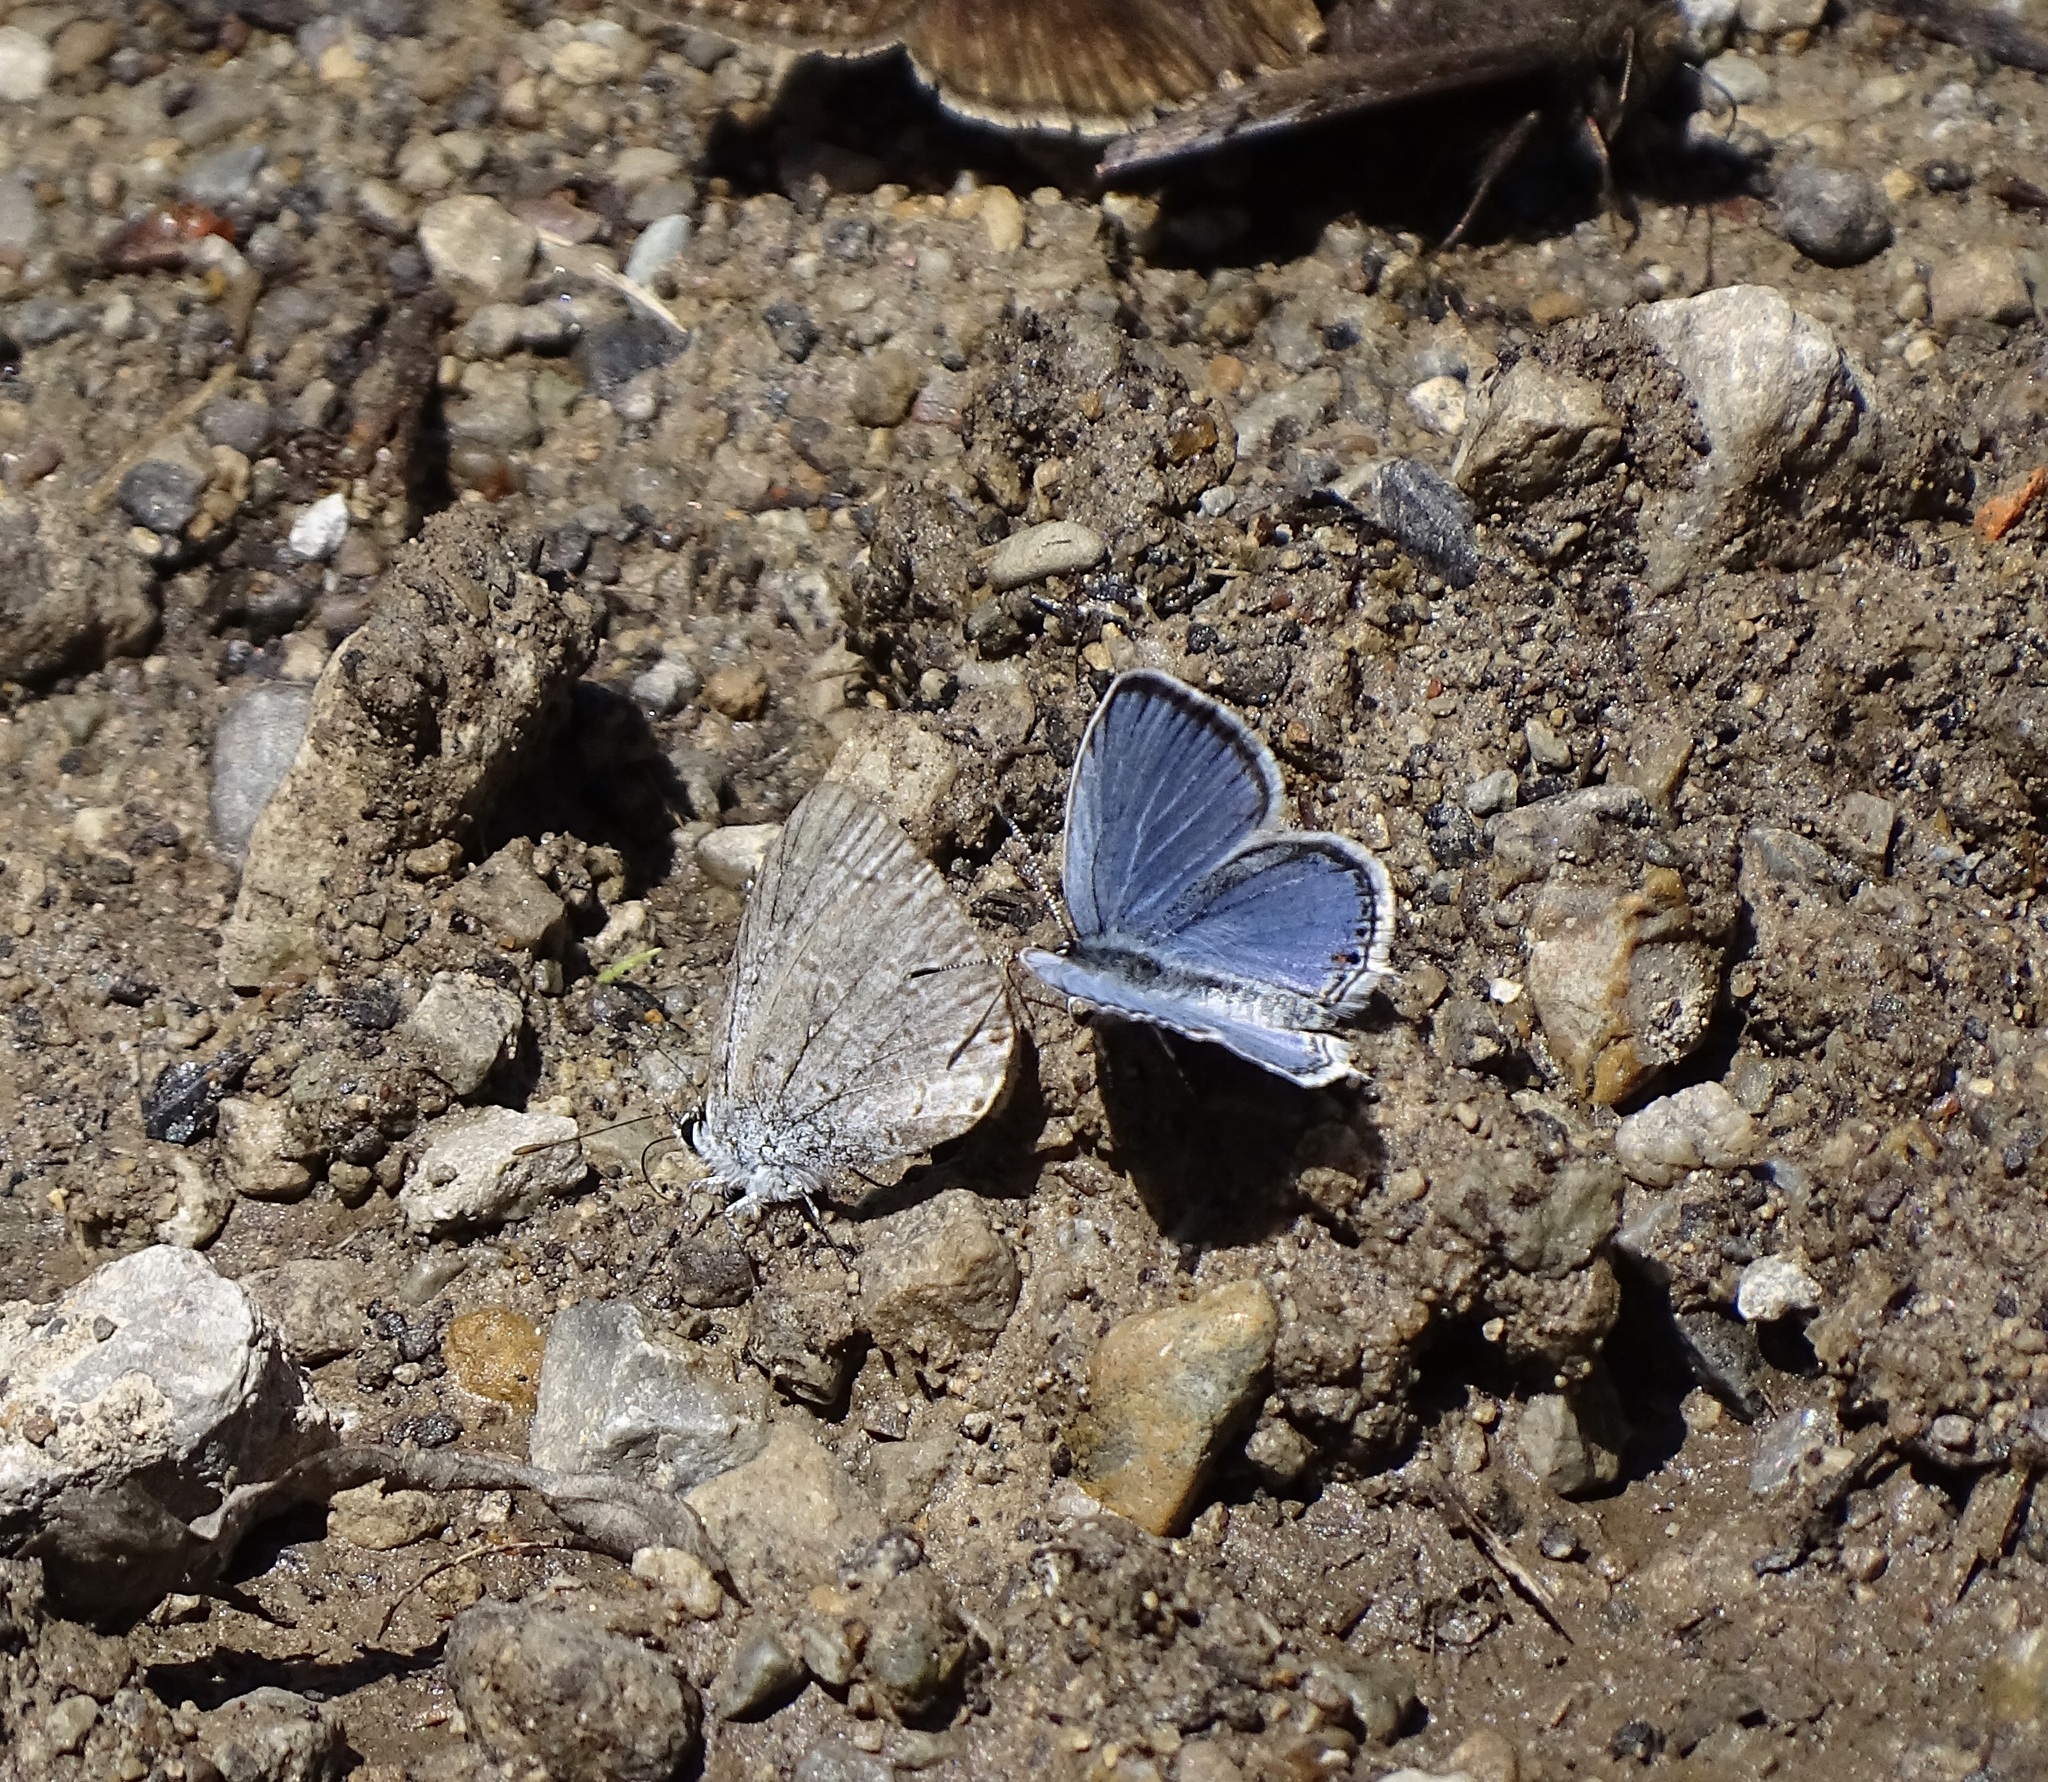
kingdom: Animalia
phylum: Arthropoda
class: Insecta
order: Lepidoptera
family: Lycaenidae
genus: Elkalyce
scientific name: Elkalyce comyntas
